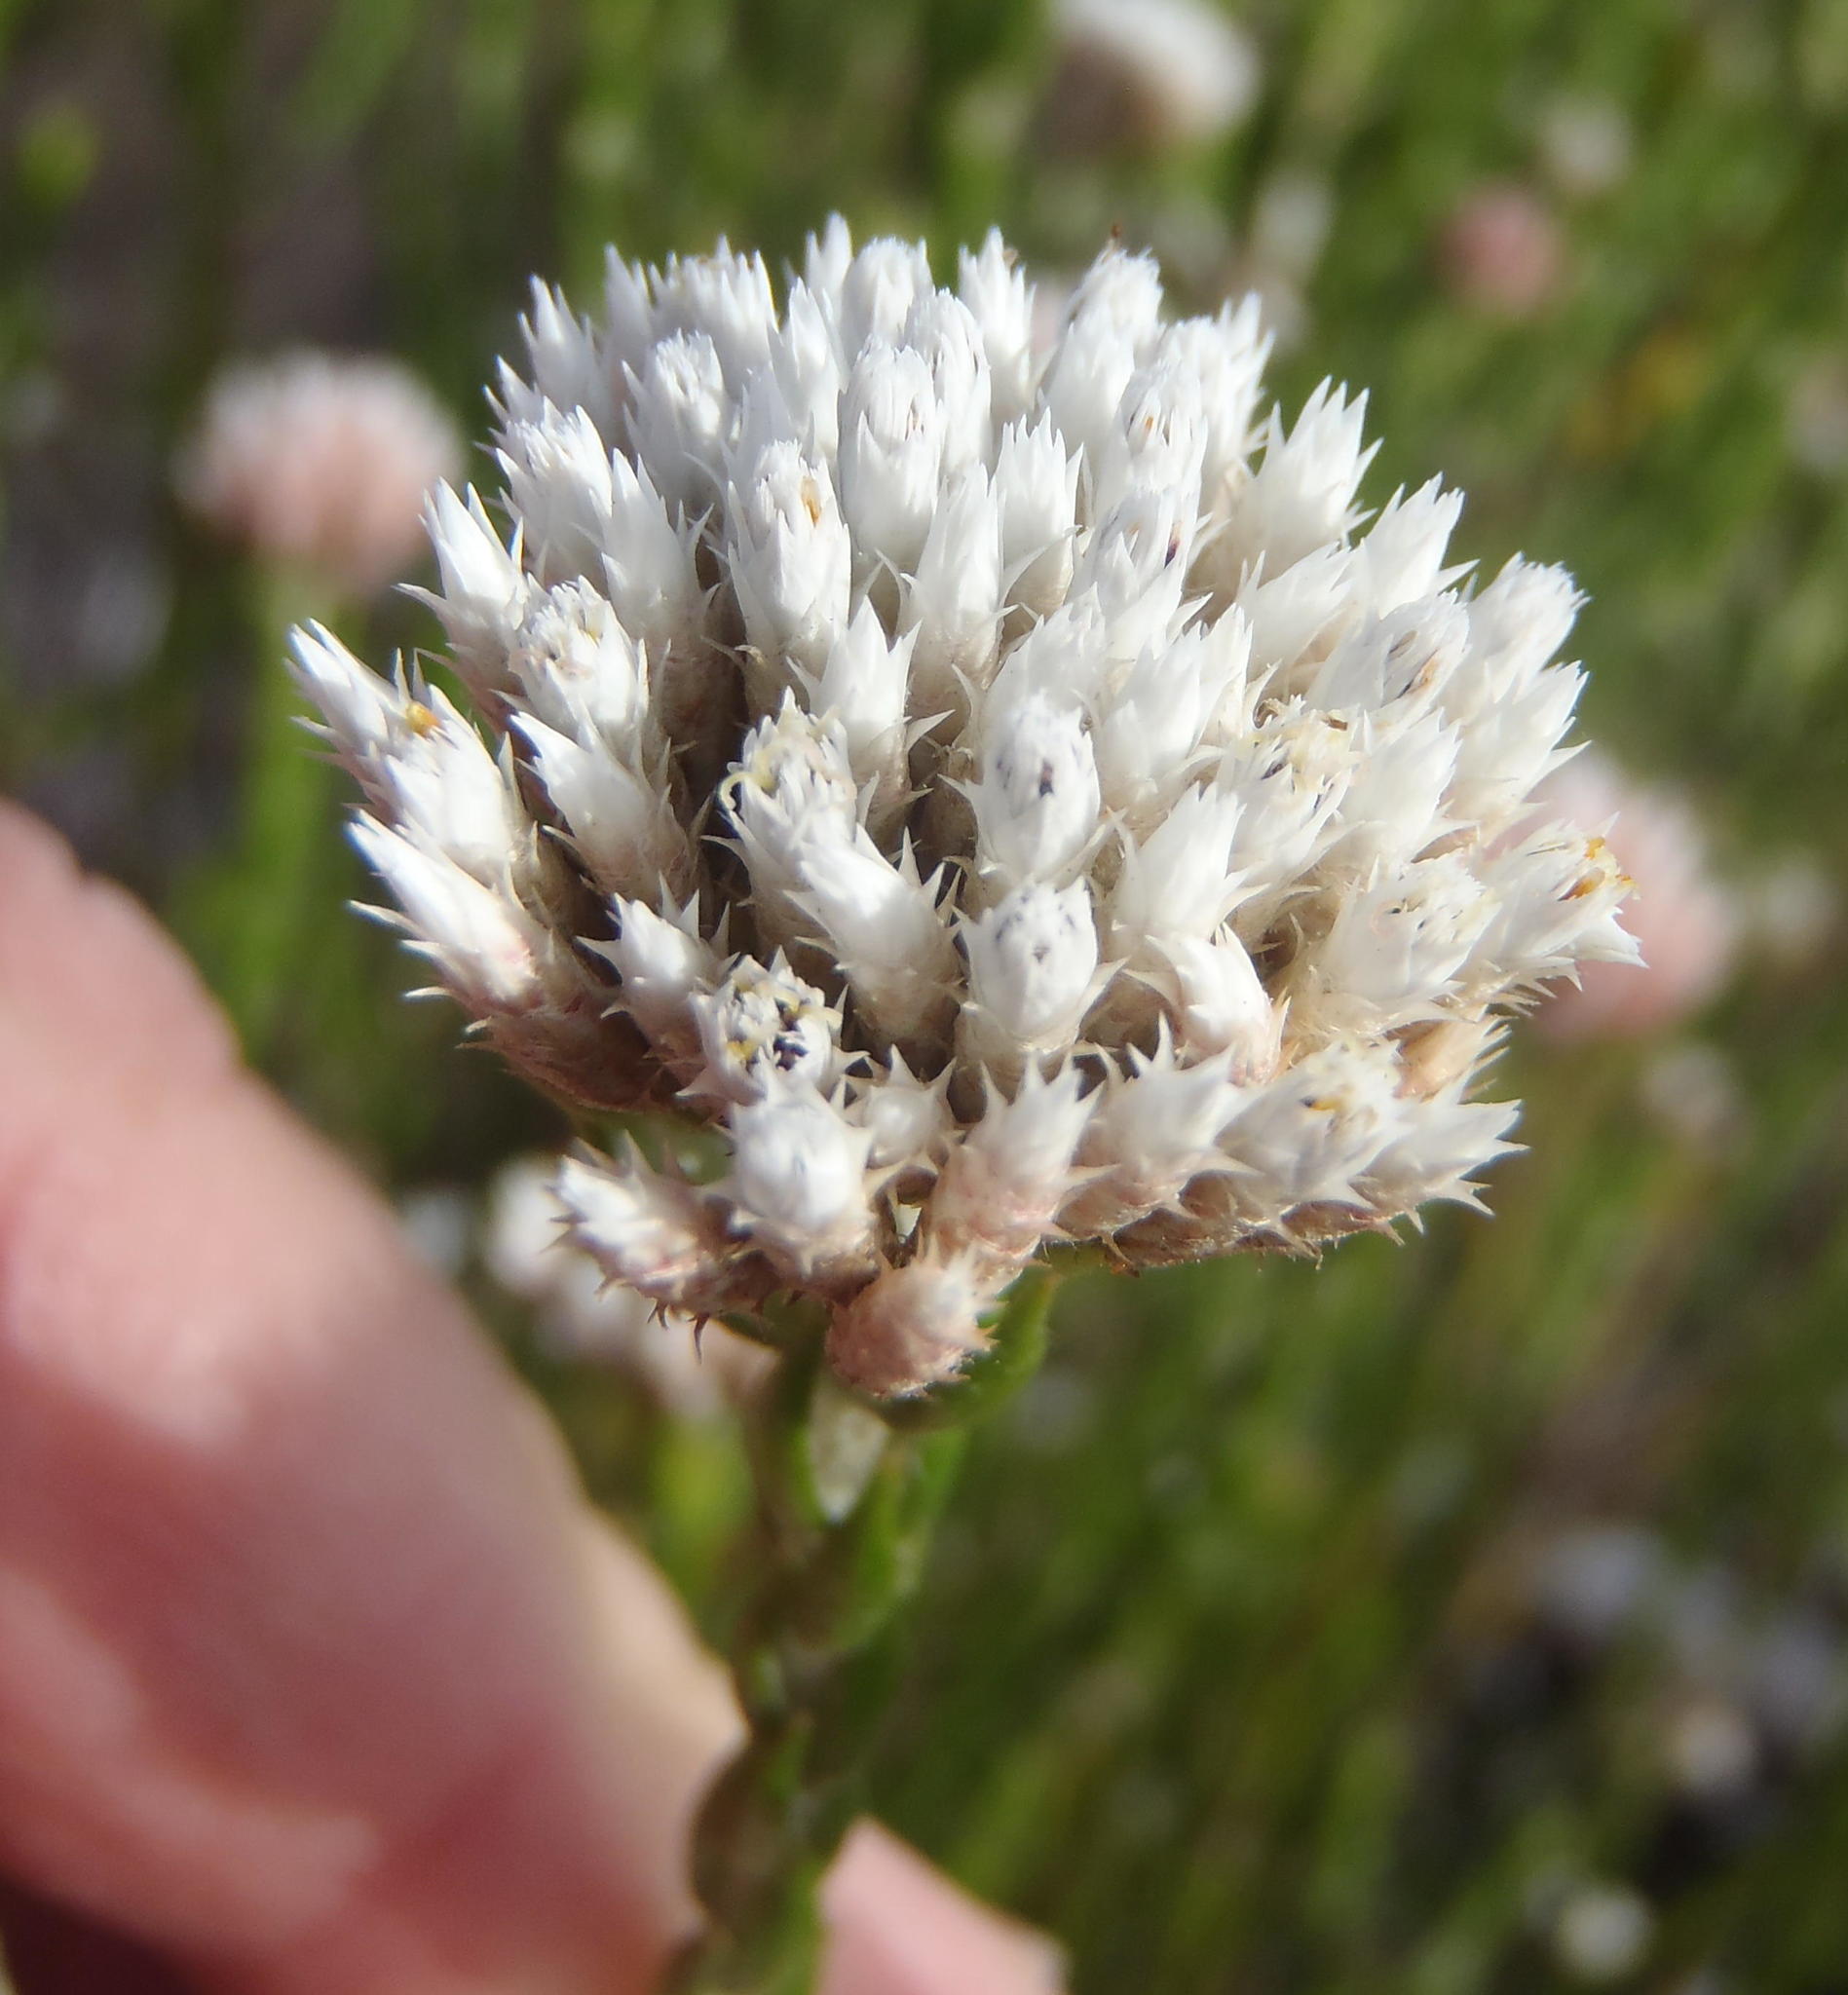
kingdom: Plantae
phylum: Tracheophyta
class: Magnoliopsida
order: Asterales
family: Asteraceae
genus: Metalasia
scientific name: Metalasia pulcherrima
